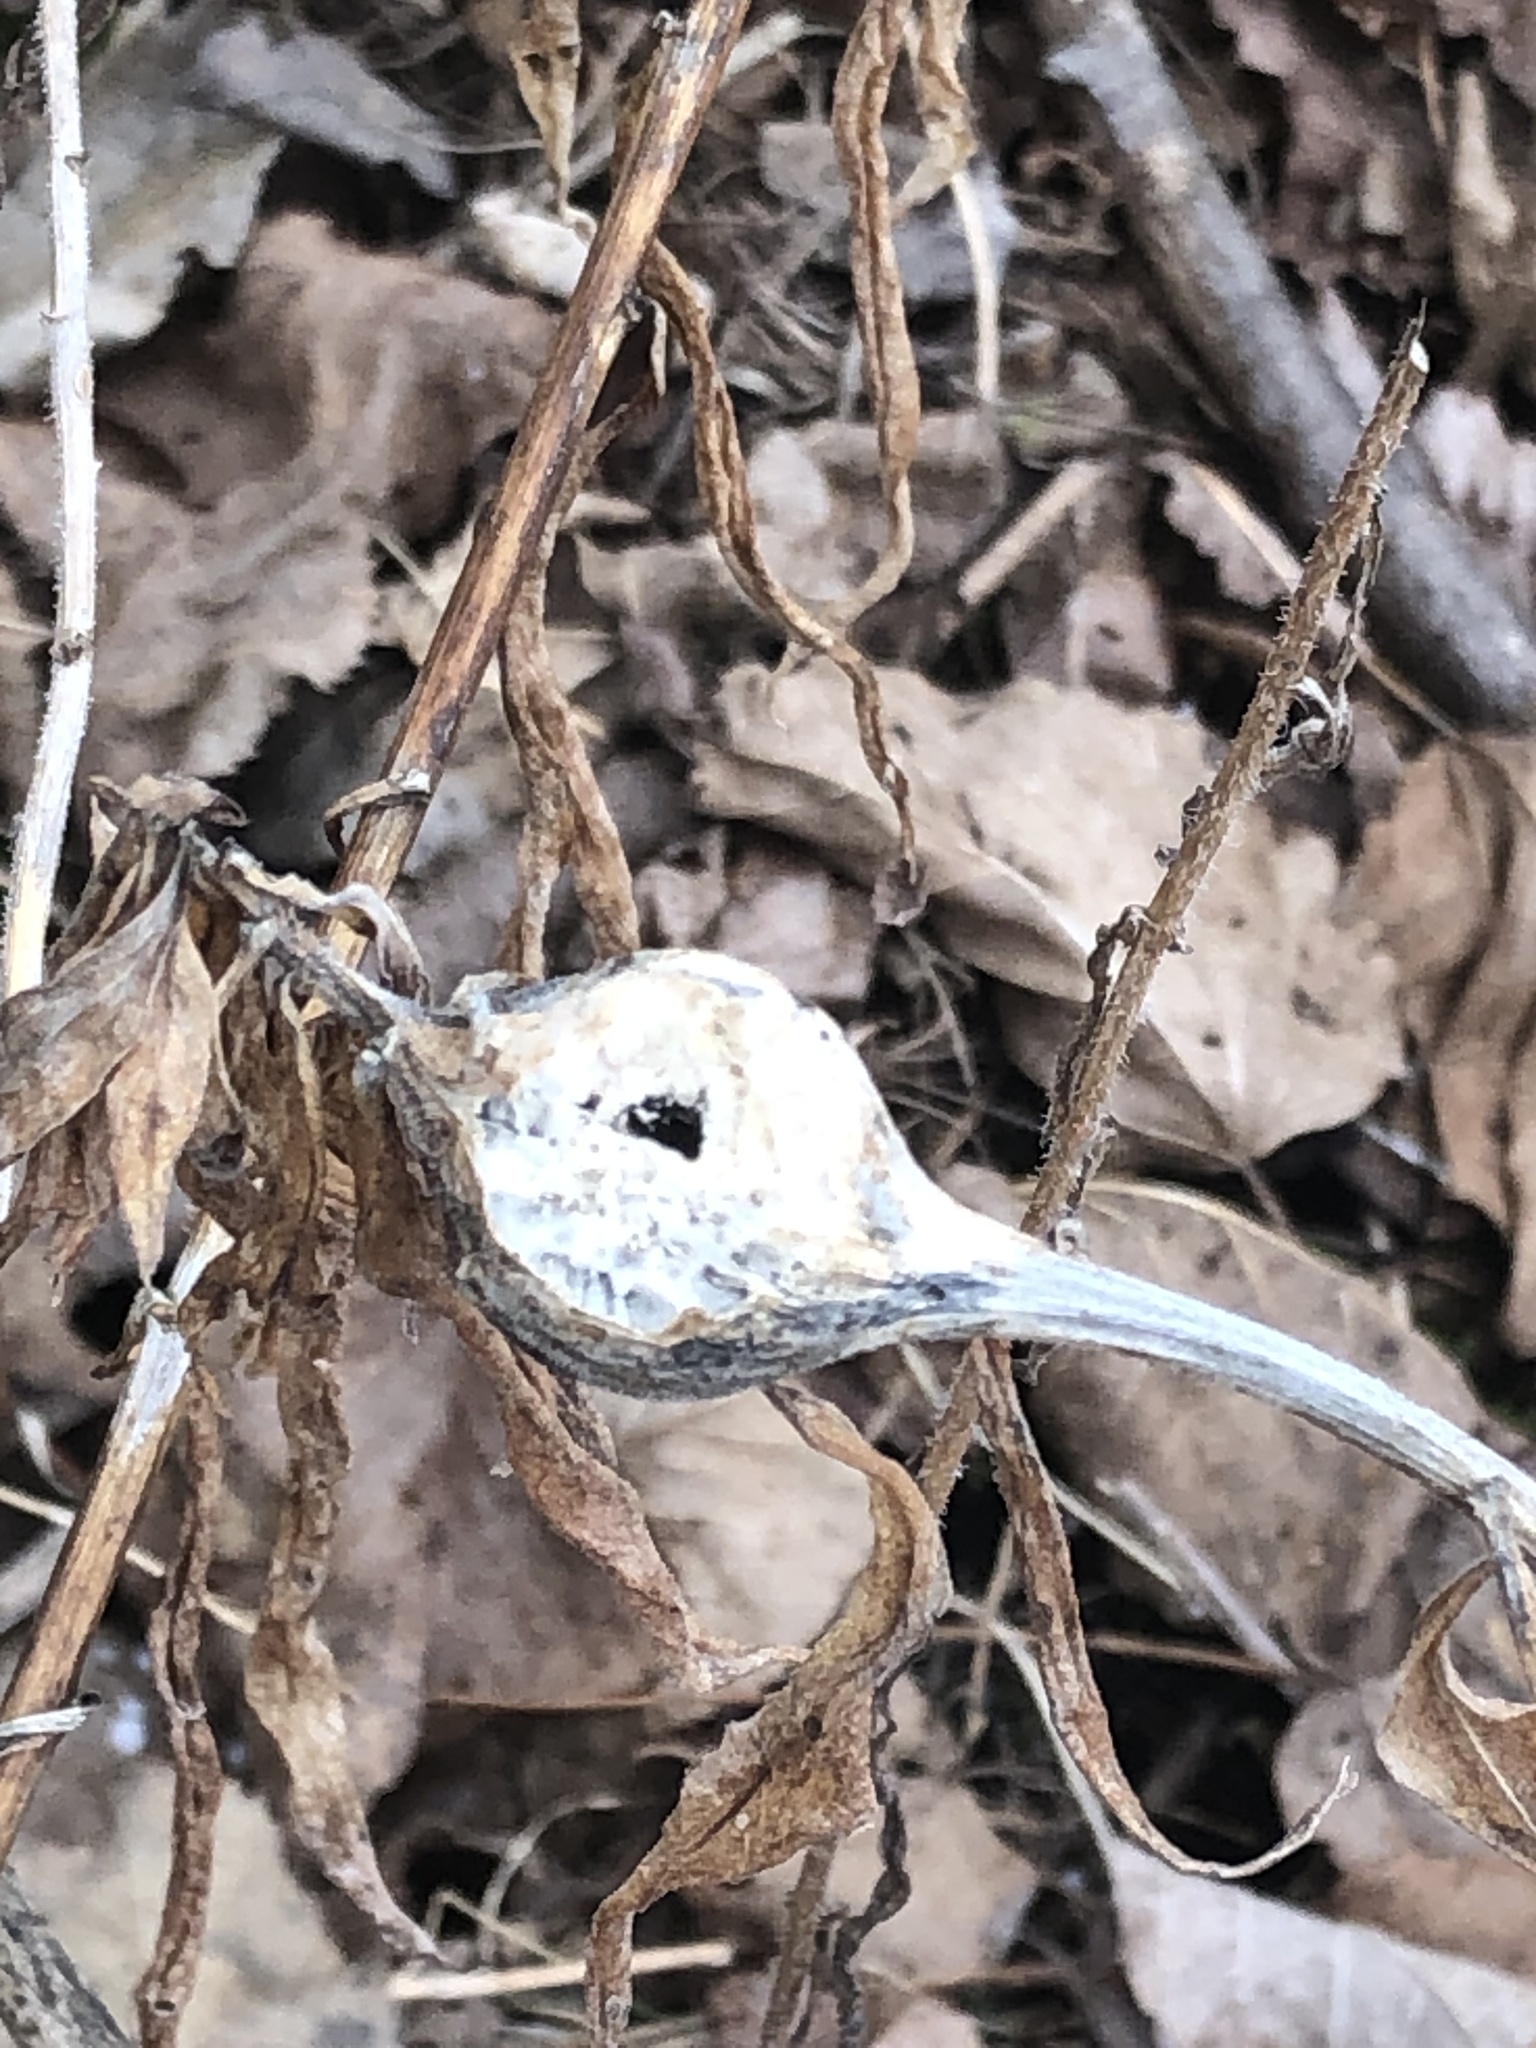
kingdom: Animalia
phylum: Arthropoda
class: Insecta
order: Diptera
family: Tephritidae
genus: Eurosta
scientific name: Eurosta solidaginis
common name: Goldenrod gall fly
